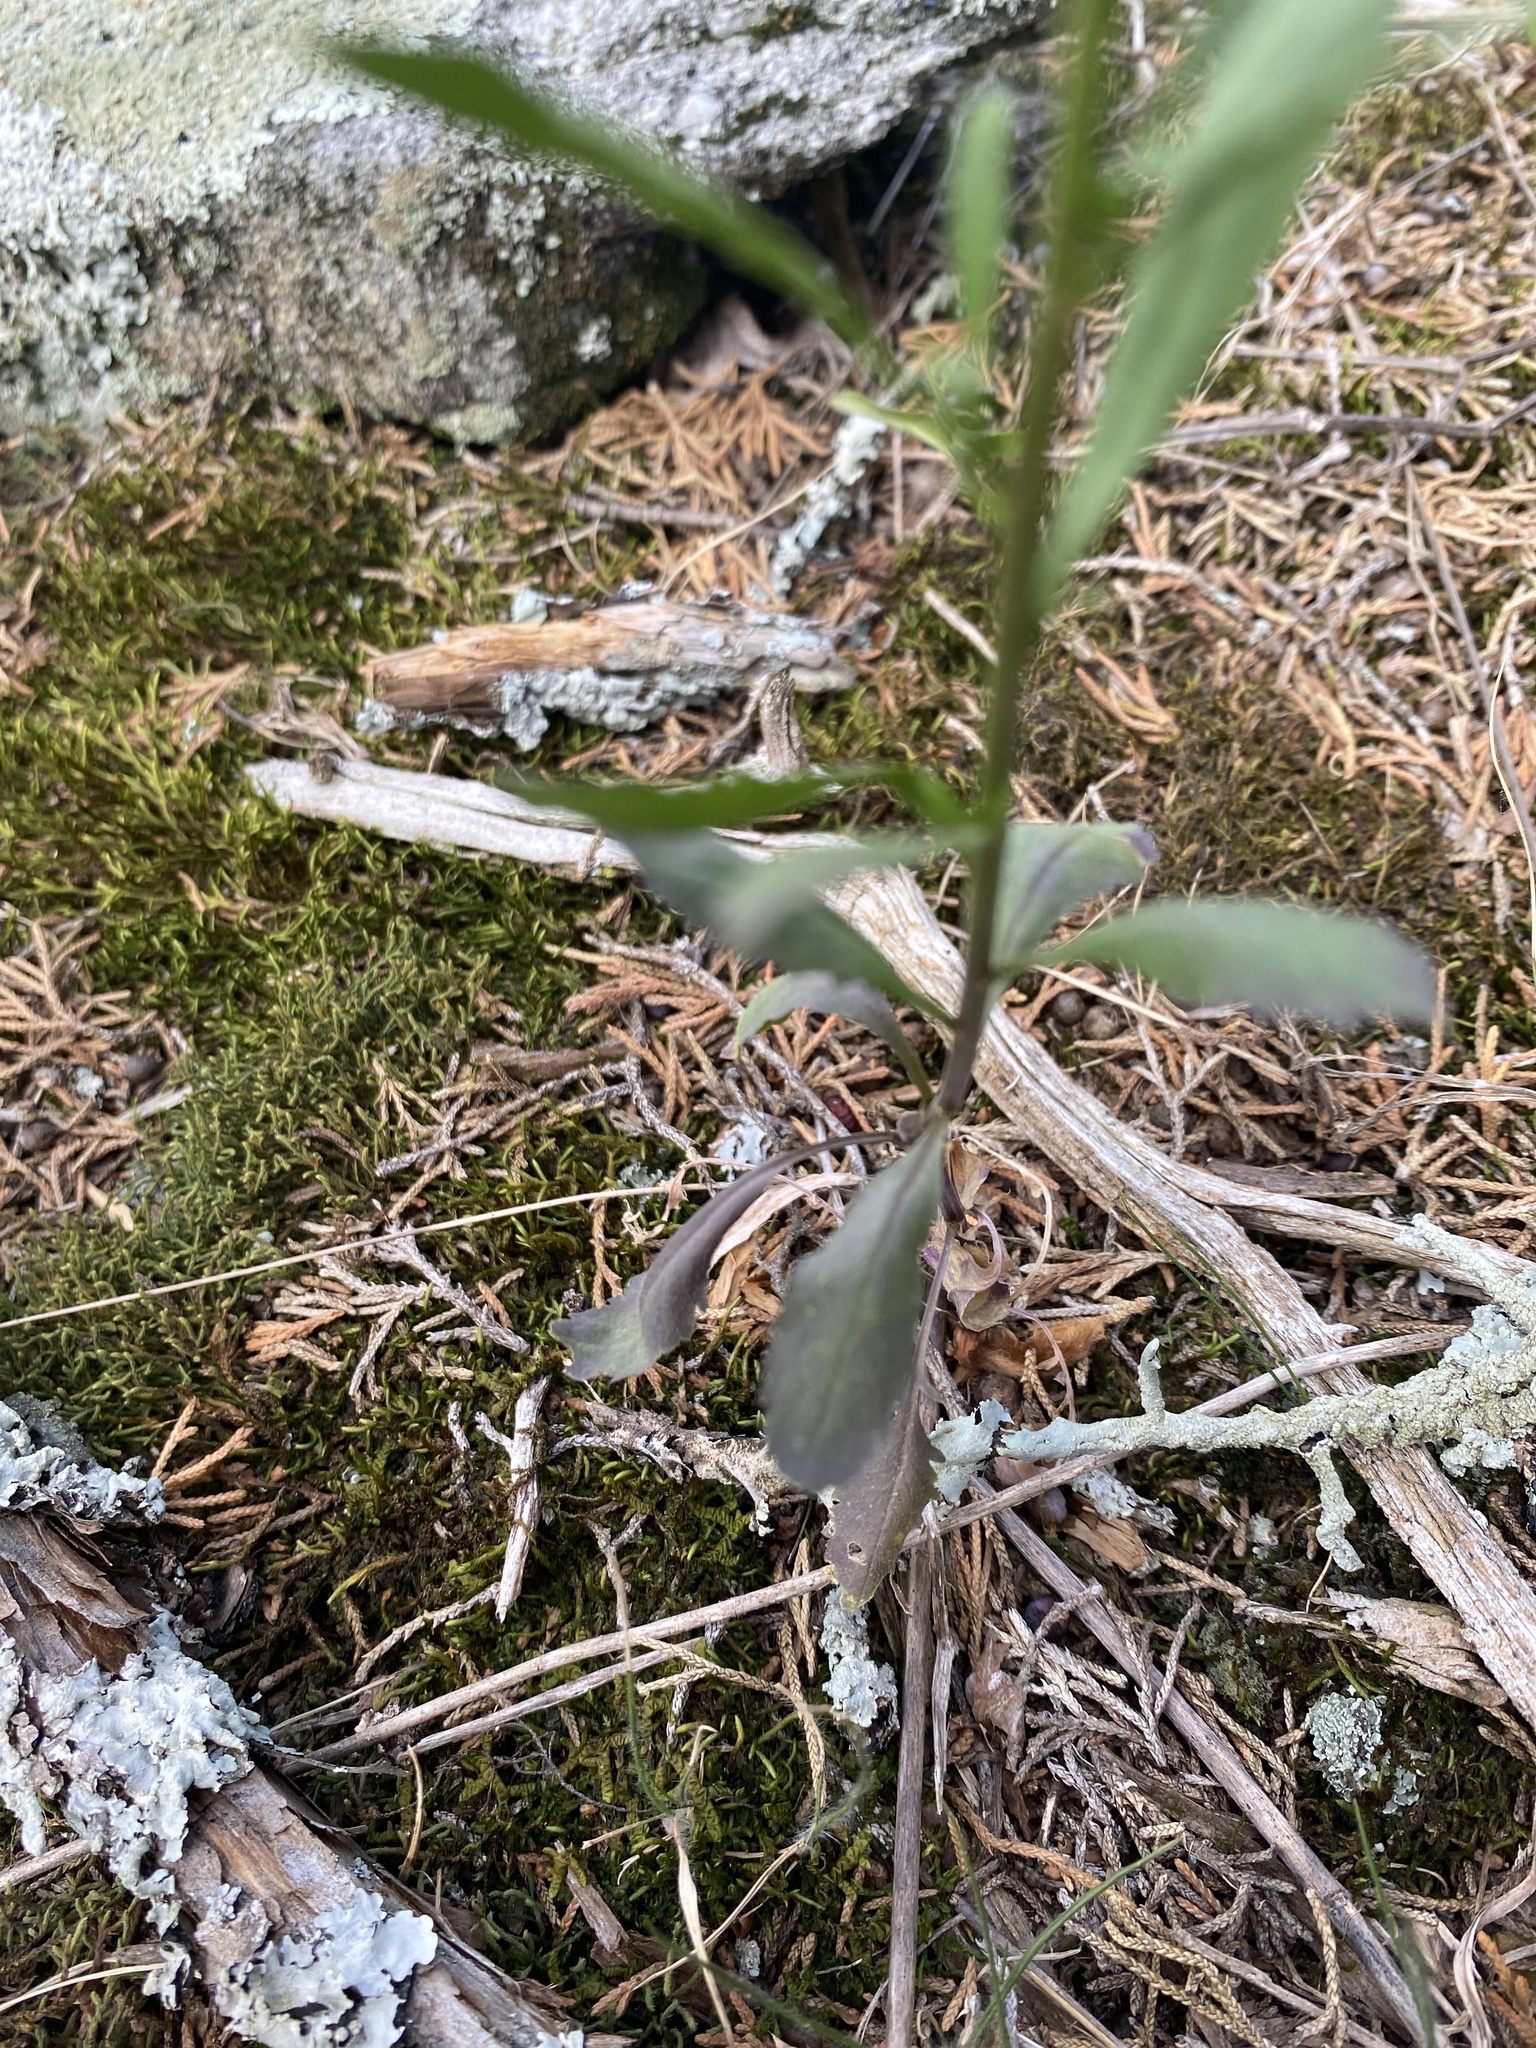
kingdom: Plantae
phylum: Tracheophyta
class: Magnoliopsida
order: Brassicales
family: Brassicaceae
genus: Lepidium
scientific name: Lepidium virginicum
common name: Least pepperwort
